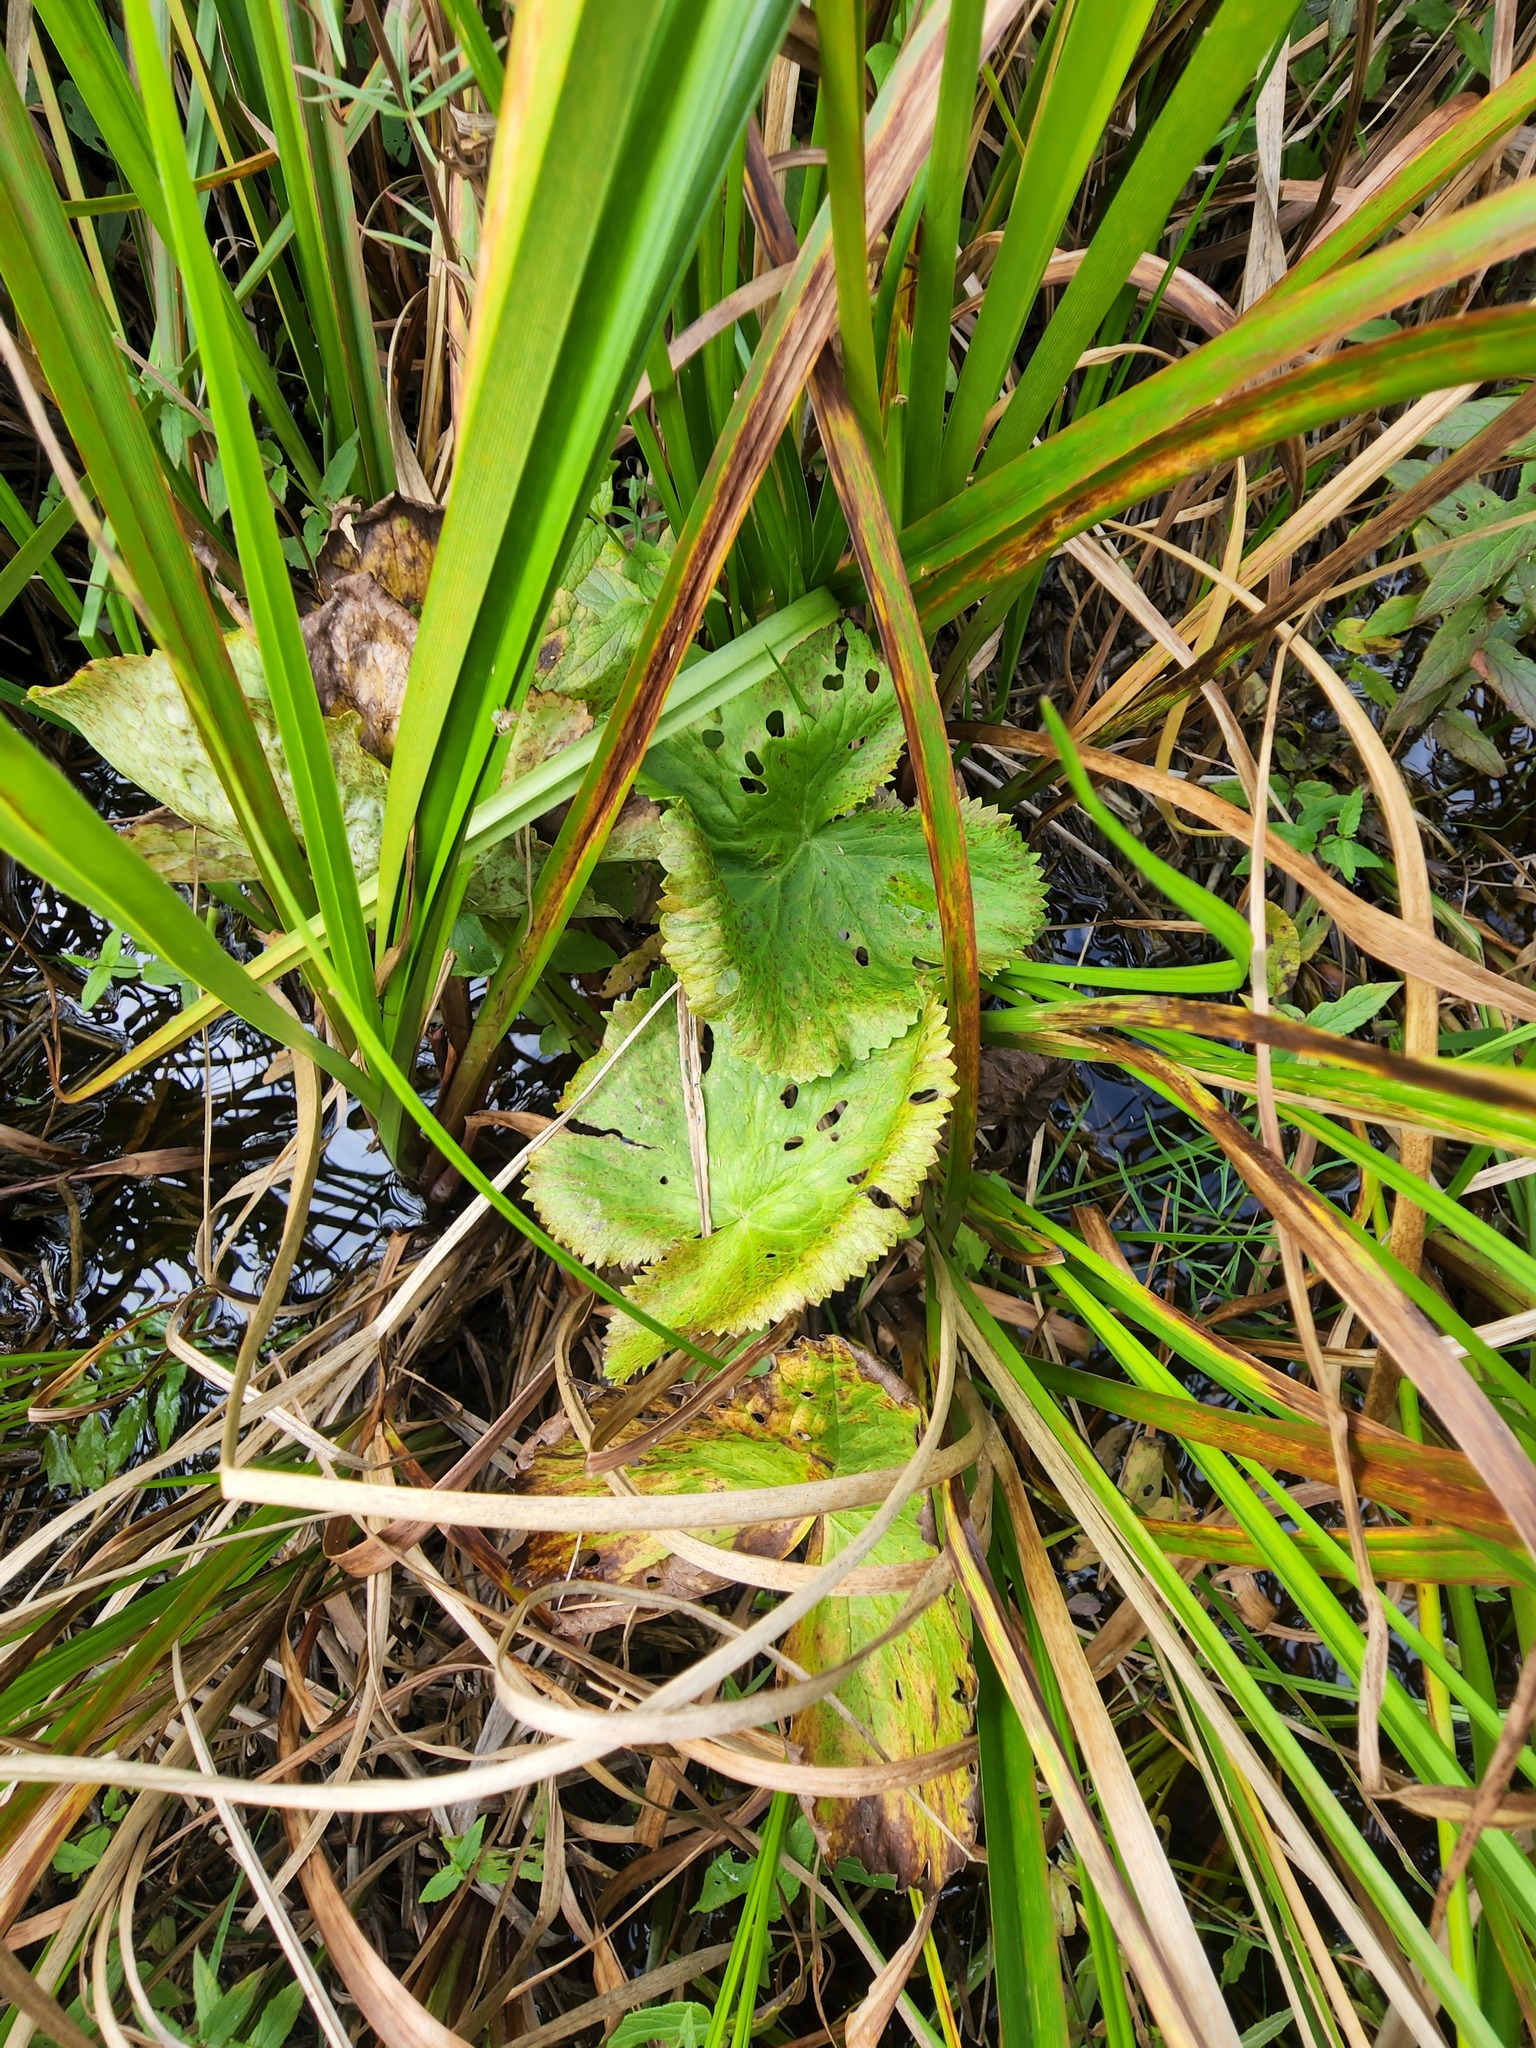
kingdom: Plantae
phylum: Tracheophyta
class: Magnoliopsida
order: Ranunculales
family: Ranunculaceae
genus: Caltha
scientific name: Caltha palustris
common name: Marsh marigold
